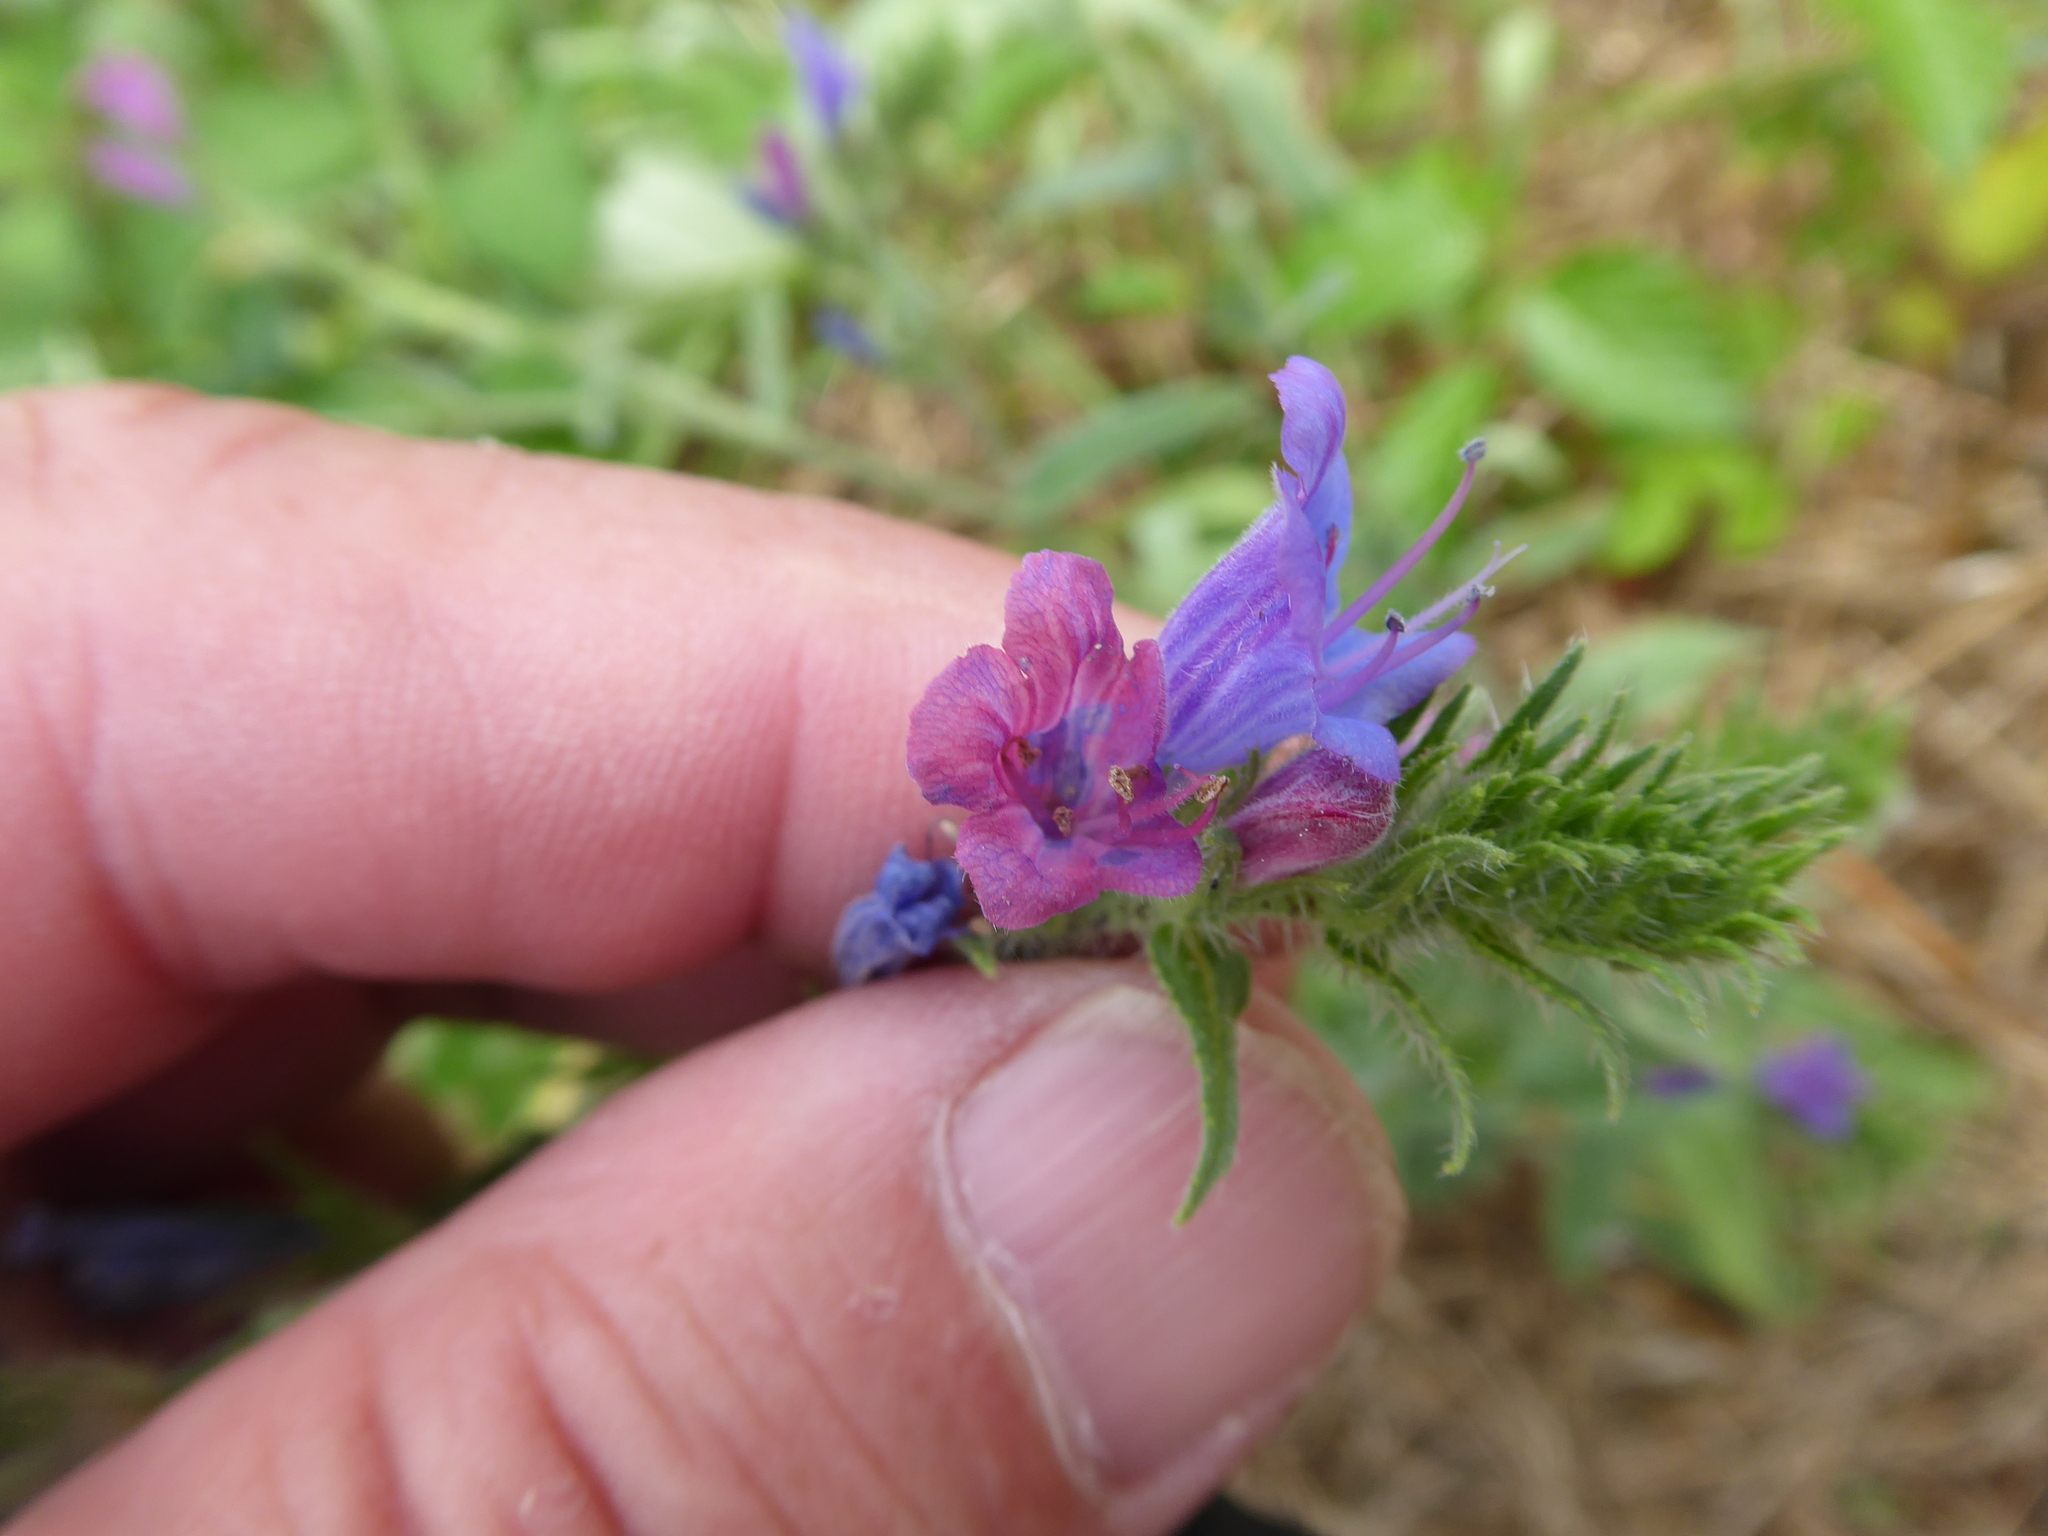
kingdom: Plantae
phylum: Tracheophyta
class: Magnoliopsida
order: Boraginales
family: Boraginaceae
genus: Echium
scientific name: Echium vulgare
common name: Common viper's bugloss
